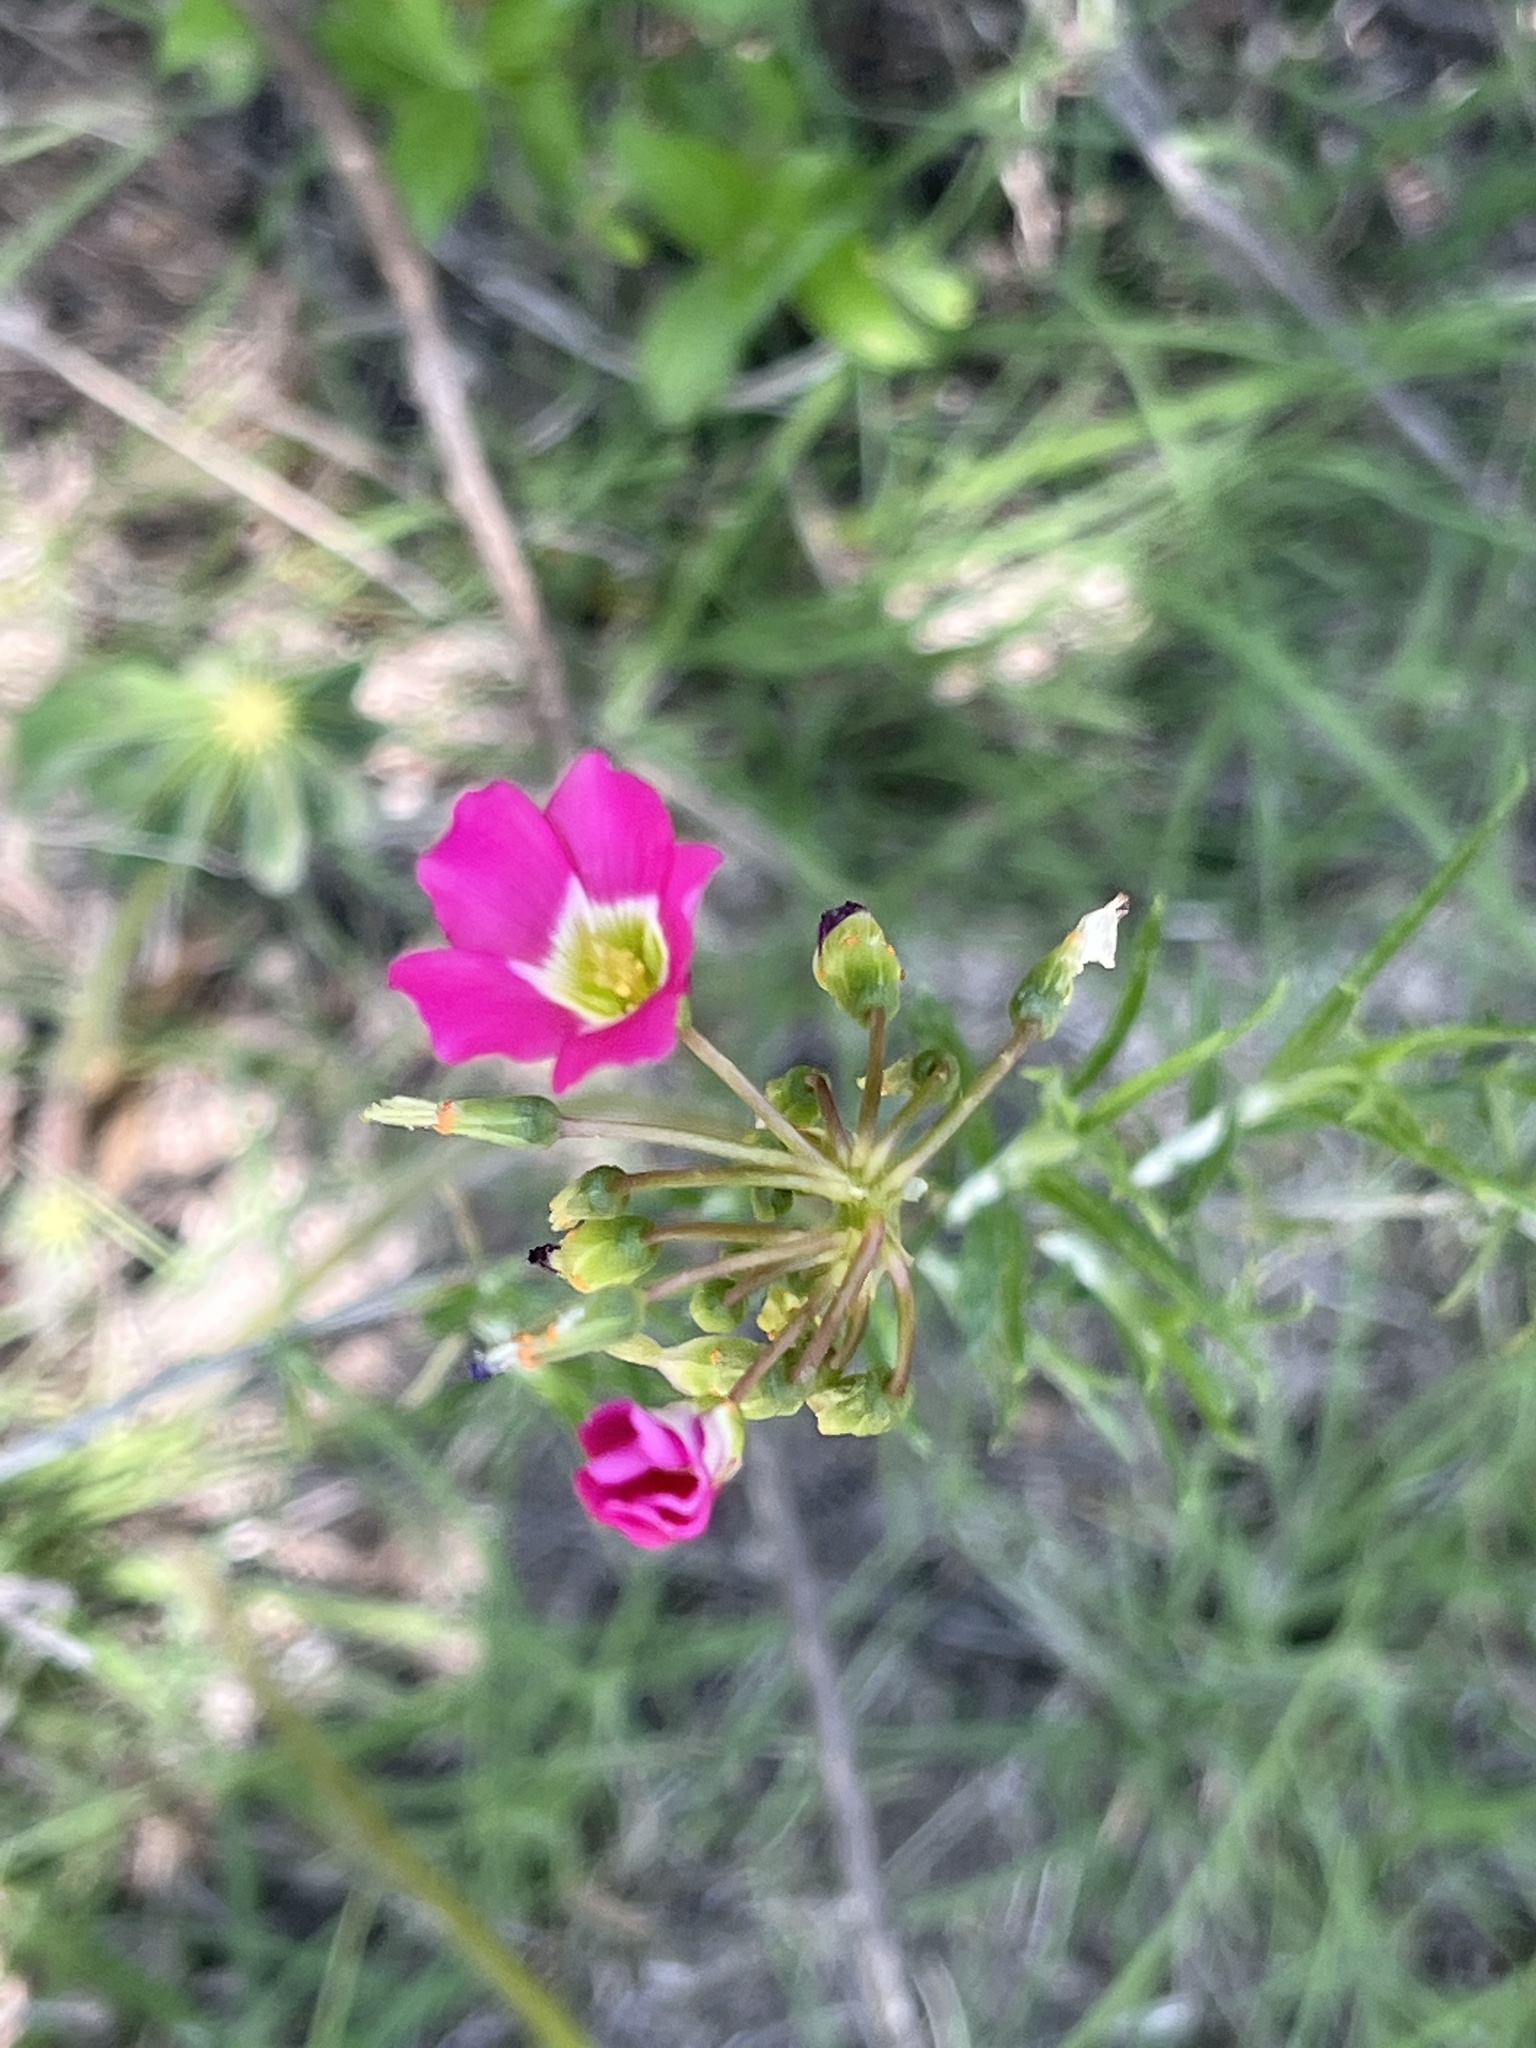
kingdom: Plantae
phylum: Tracheophyta
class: Magnoliopsida
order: Oxalidales
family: Oxalidaceae
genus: Oxalis
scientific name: Oxalis tetraphylla
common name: Four-leaved pink-sorrel
